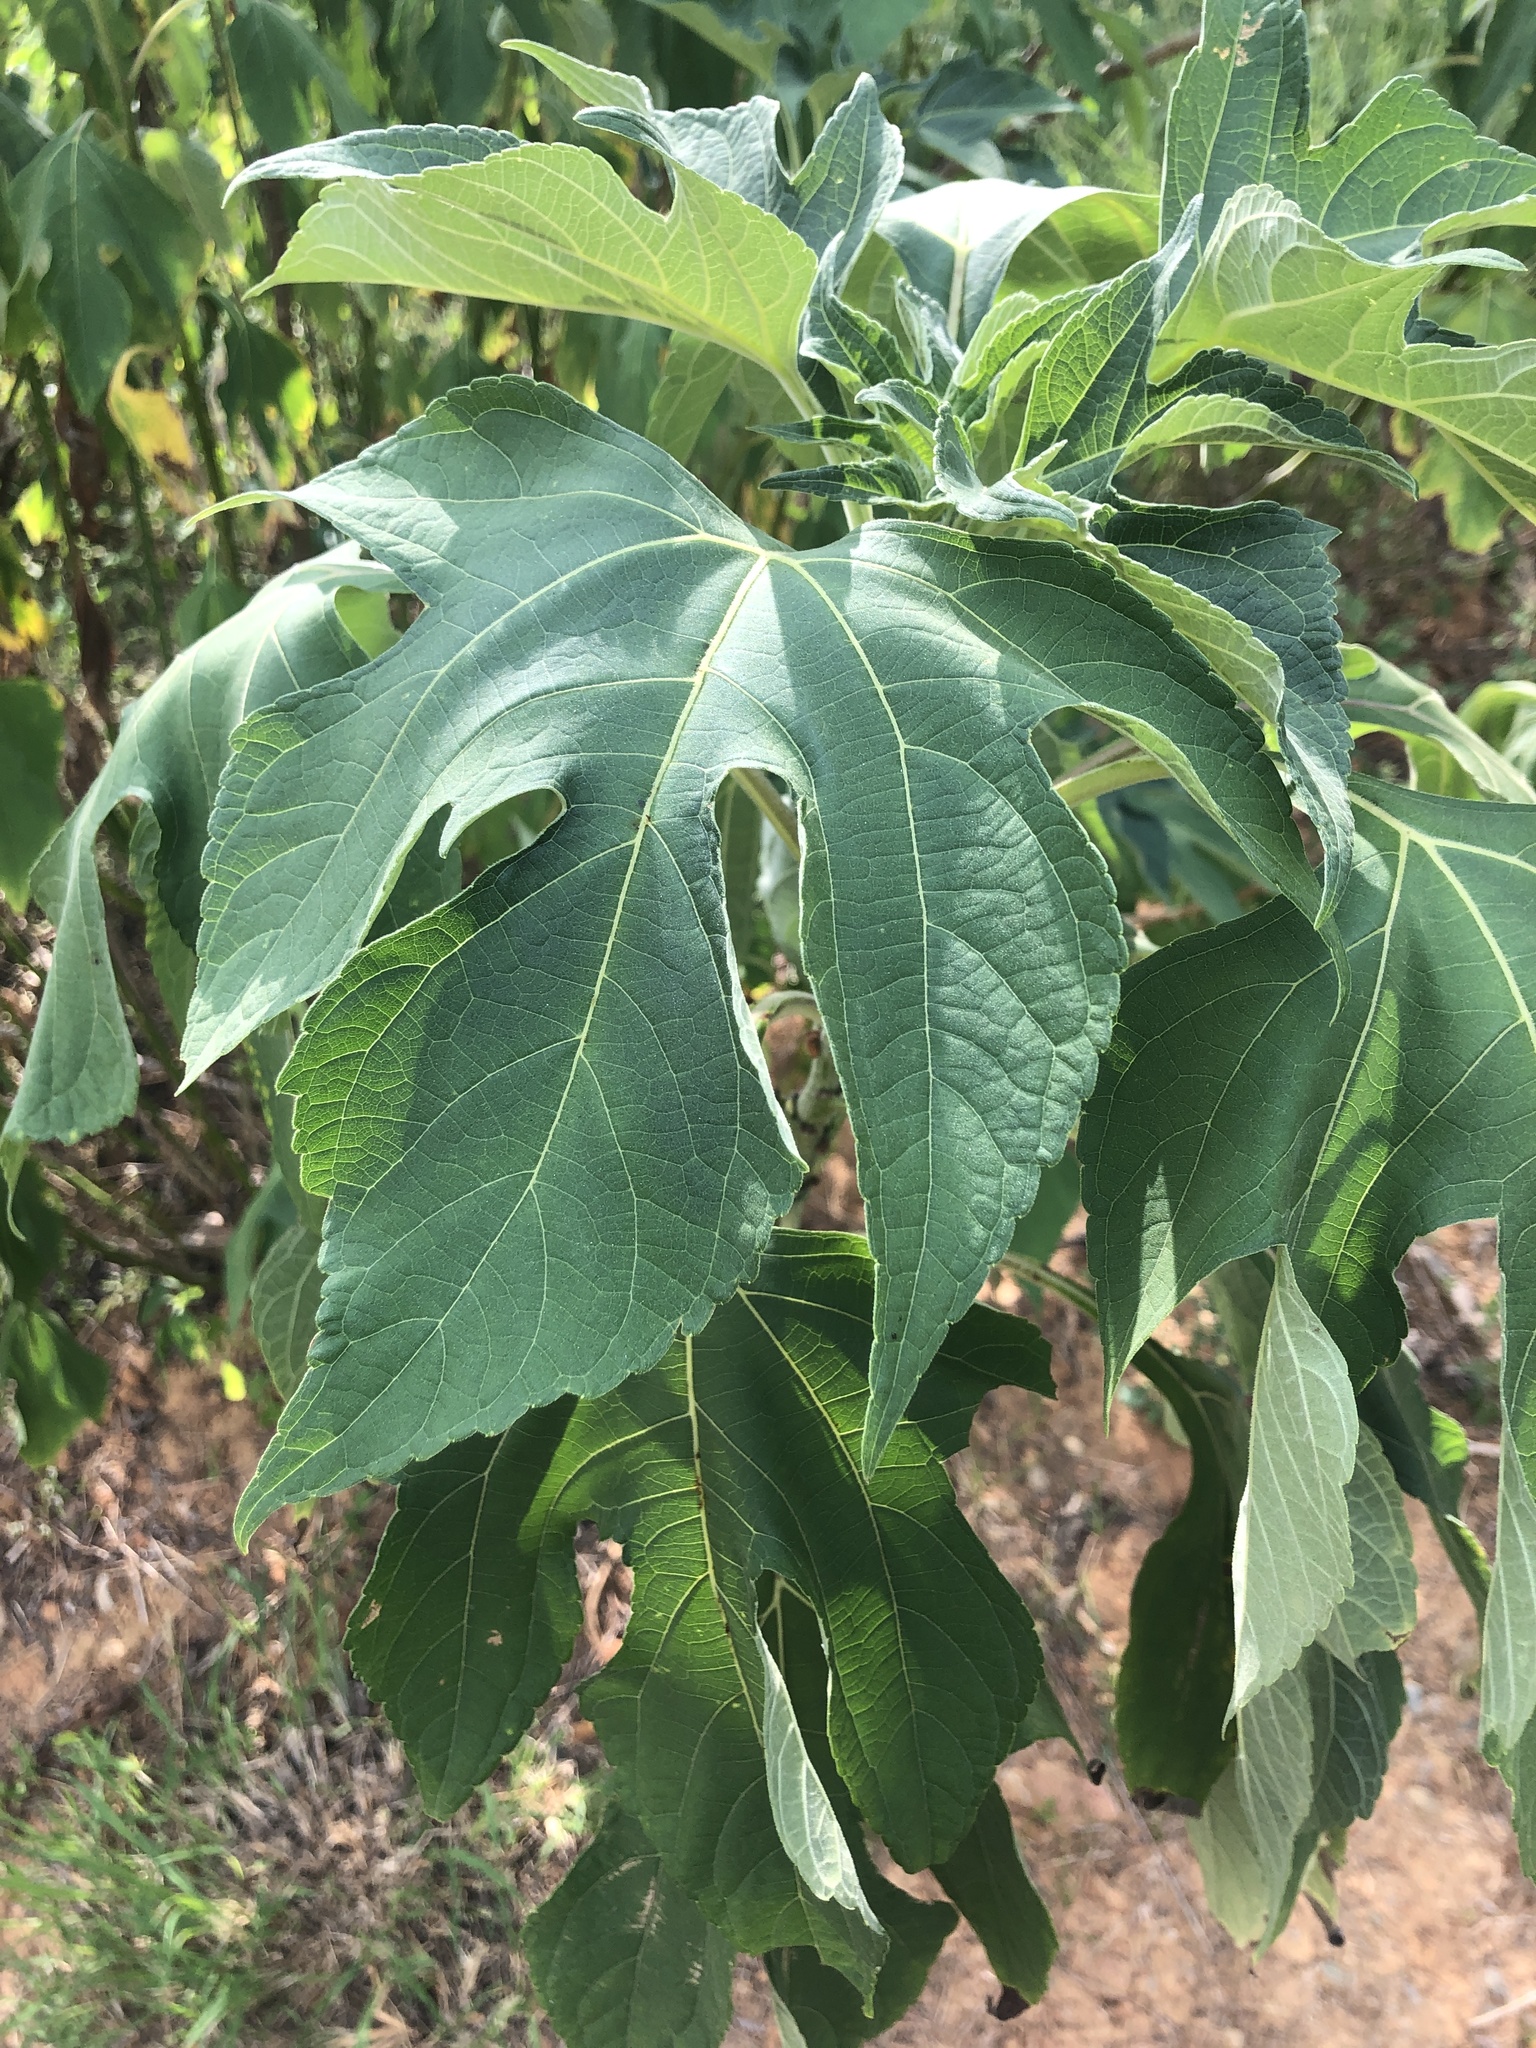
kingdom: Plantae
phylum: Tracheophyta
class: Magnoliopsida
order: Asterales
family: Asteraceae
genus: Tithonia
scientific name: Tithonia diversifolia
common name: Tree marigold
